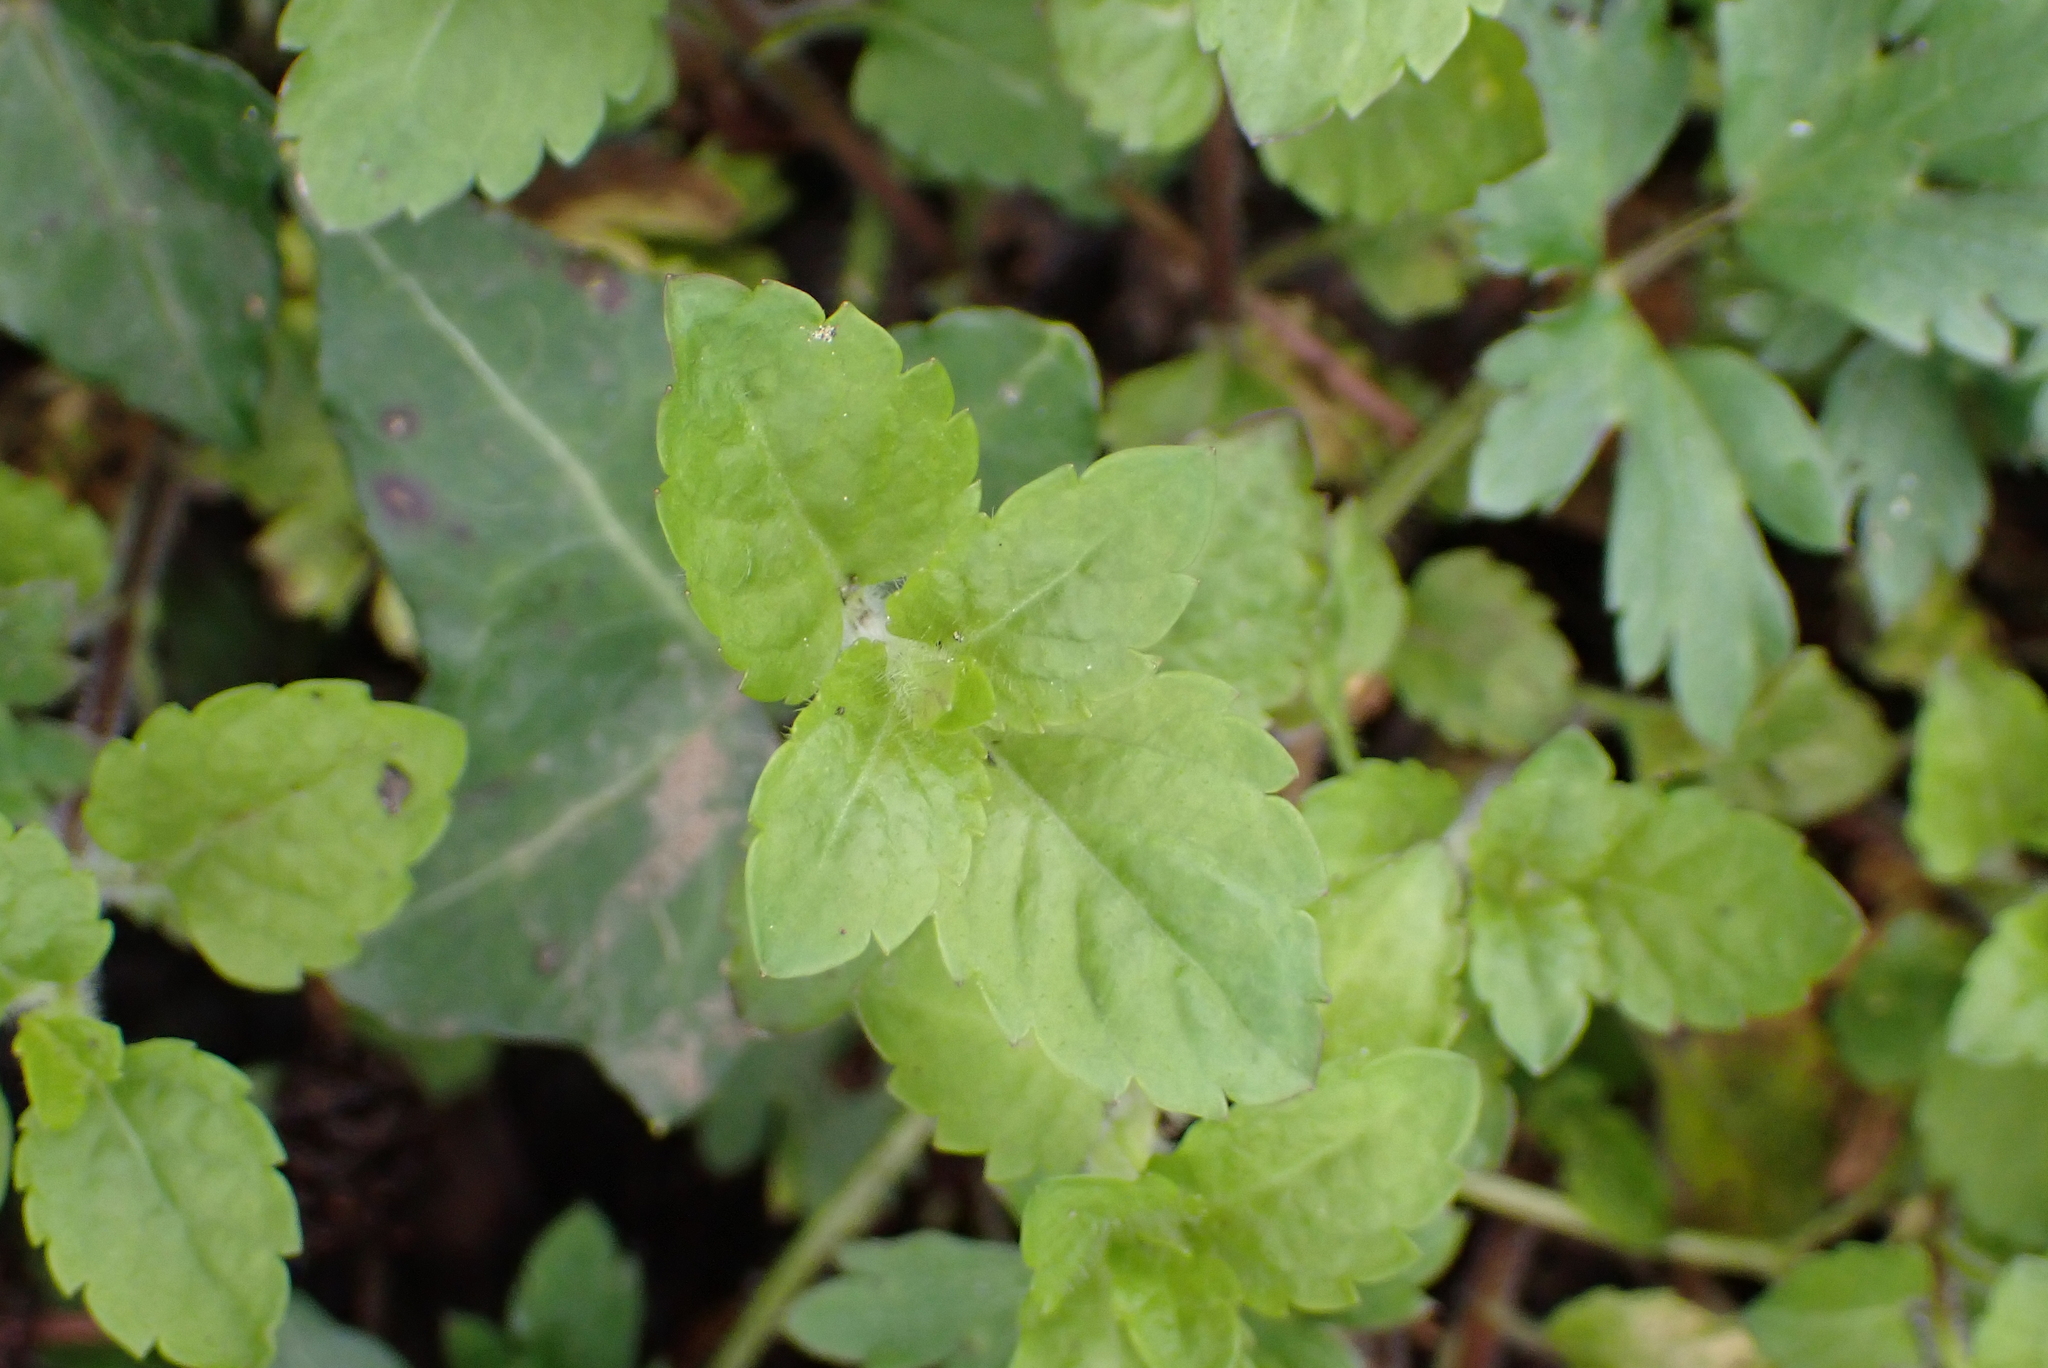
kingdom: Plantae
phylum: Tracheophyta
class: Magnoliopsida
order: Lamiales
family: Plantaginaceae
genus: Veronica
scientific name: Veronica montana
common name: Wood speedwell
